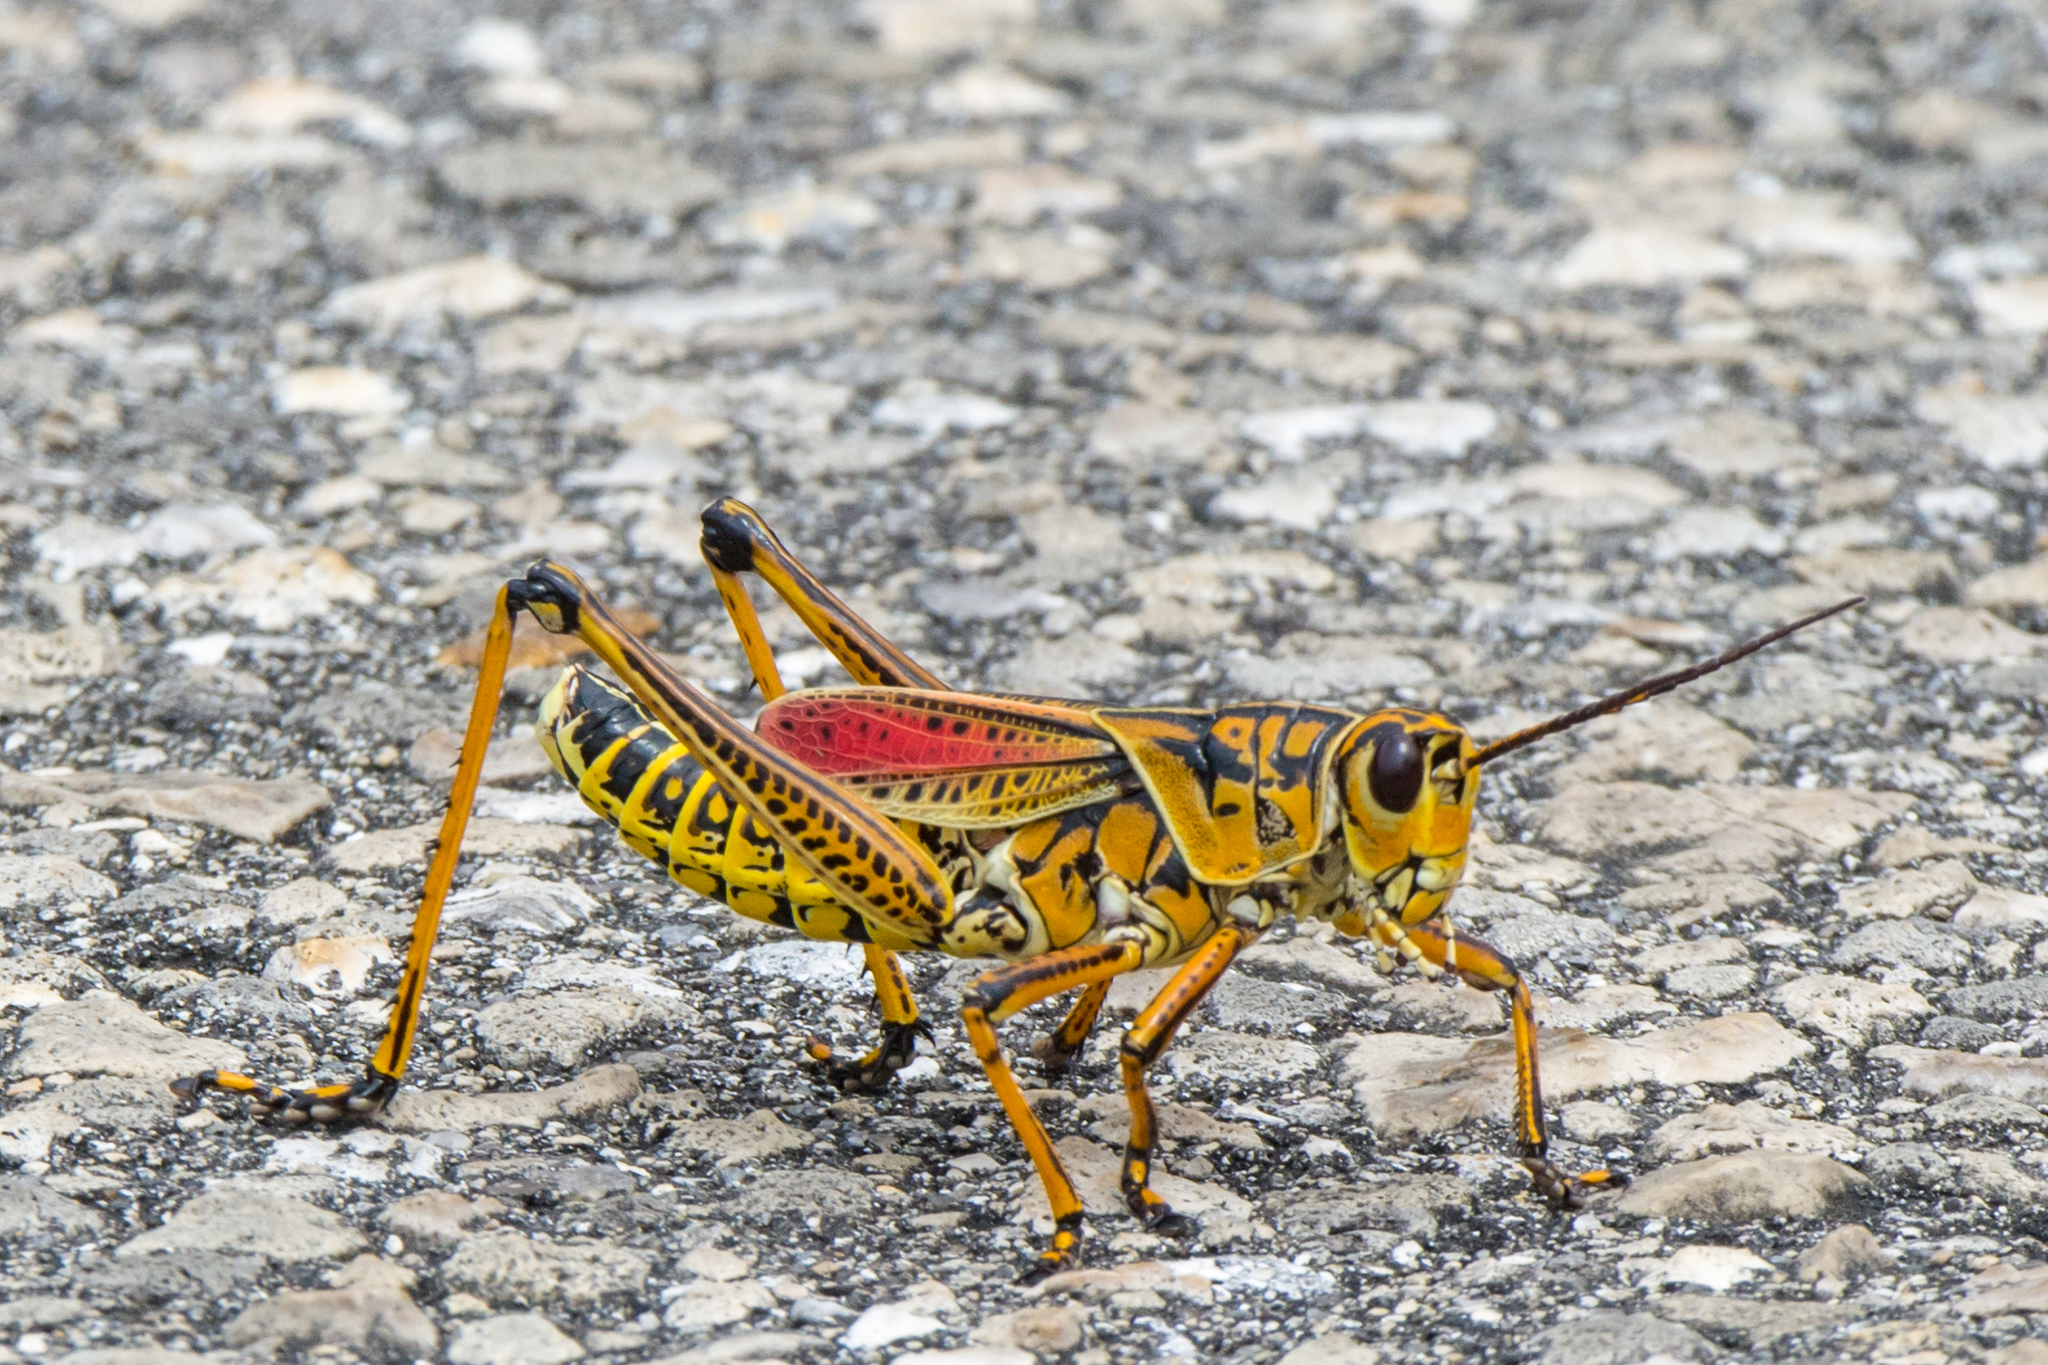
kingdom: Animalia
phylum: Arthropoda
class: Insecta
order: Orthoptera
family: Romaleidae
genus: Romalea
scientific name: Romalea microptera
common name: Eastern lubber grasshopper
